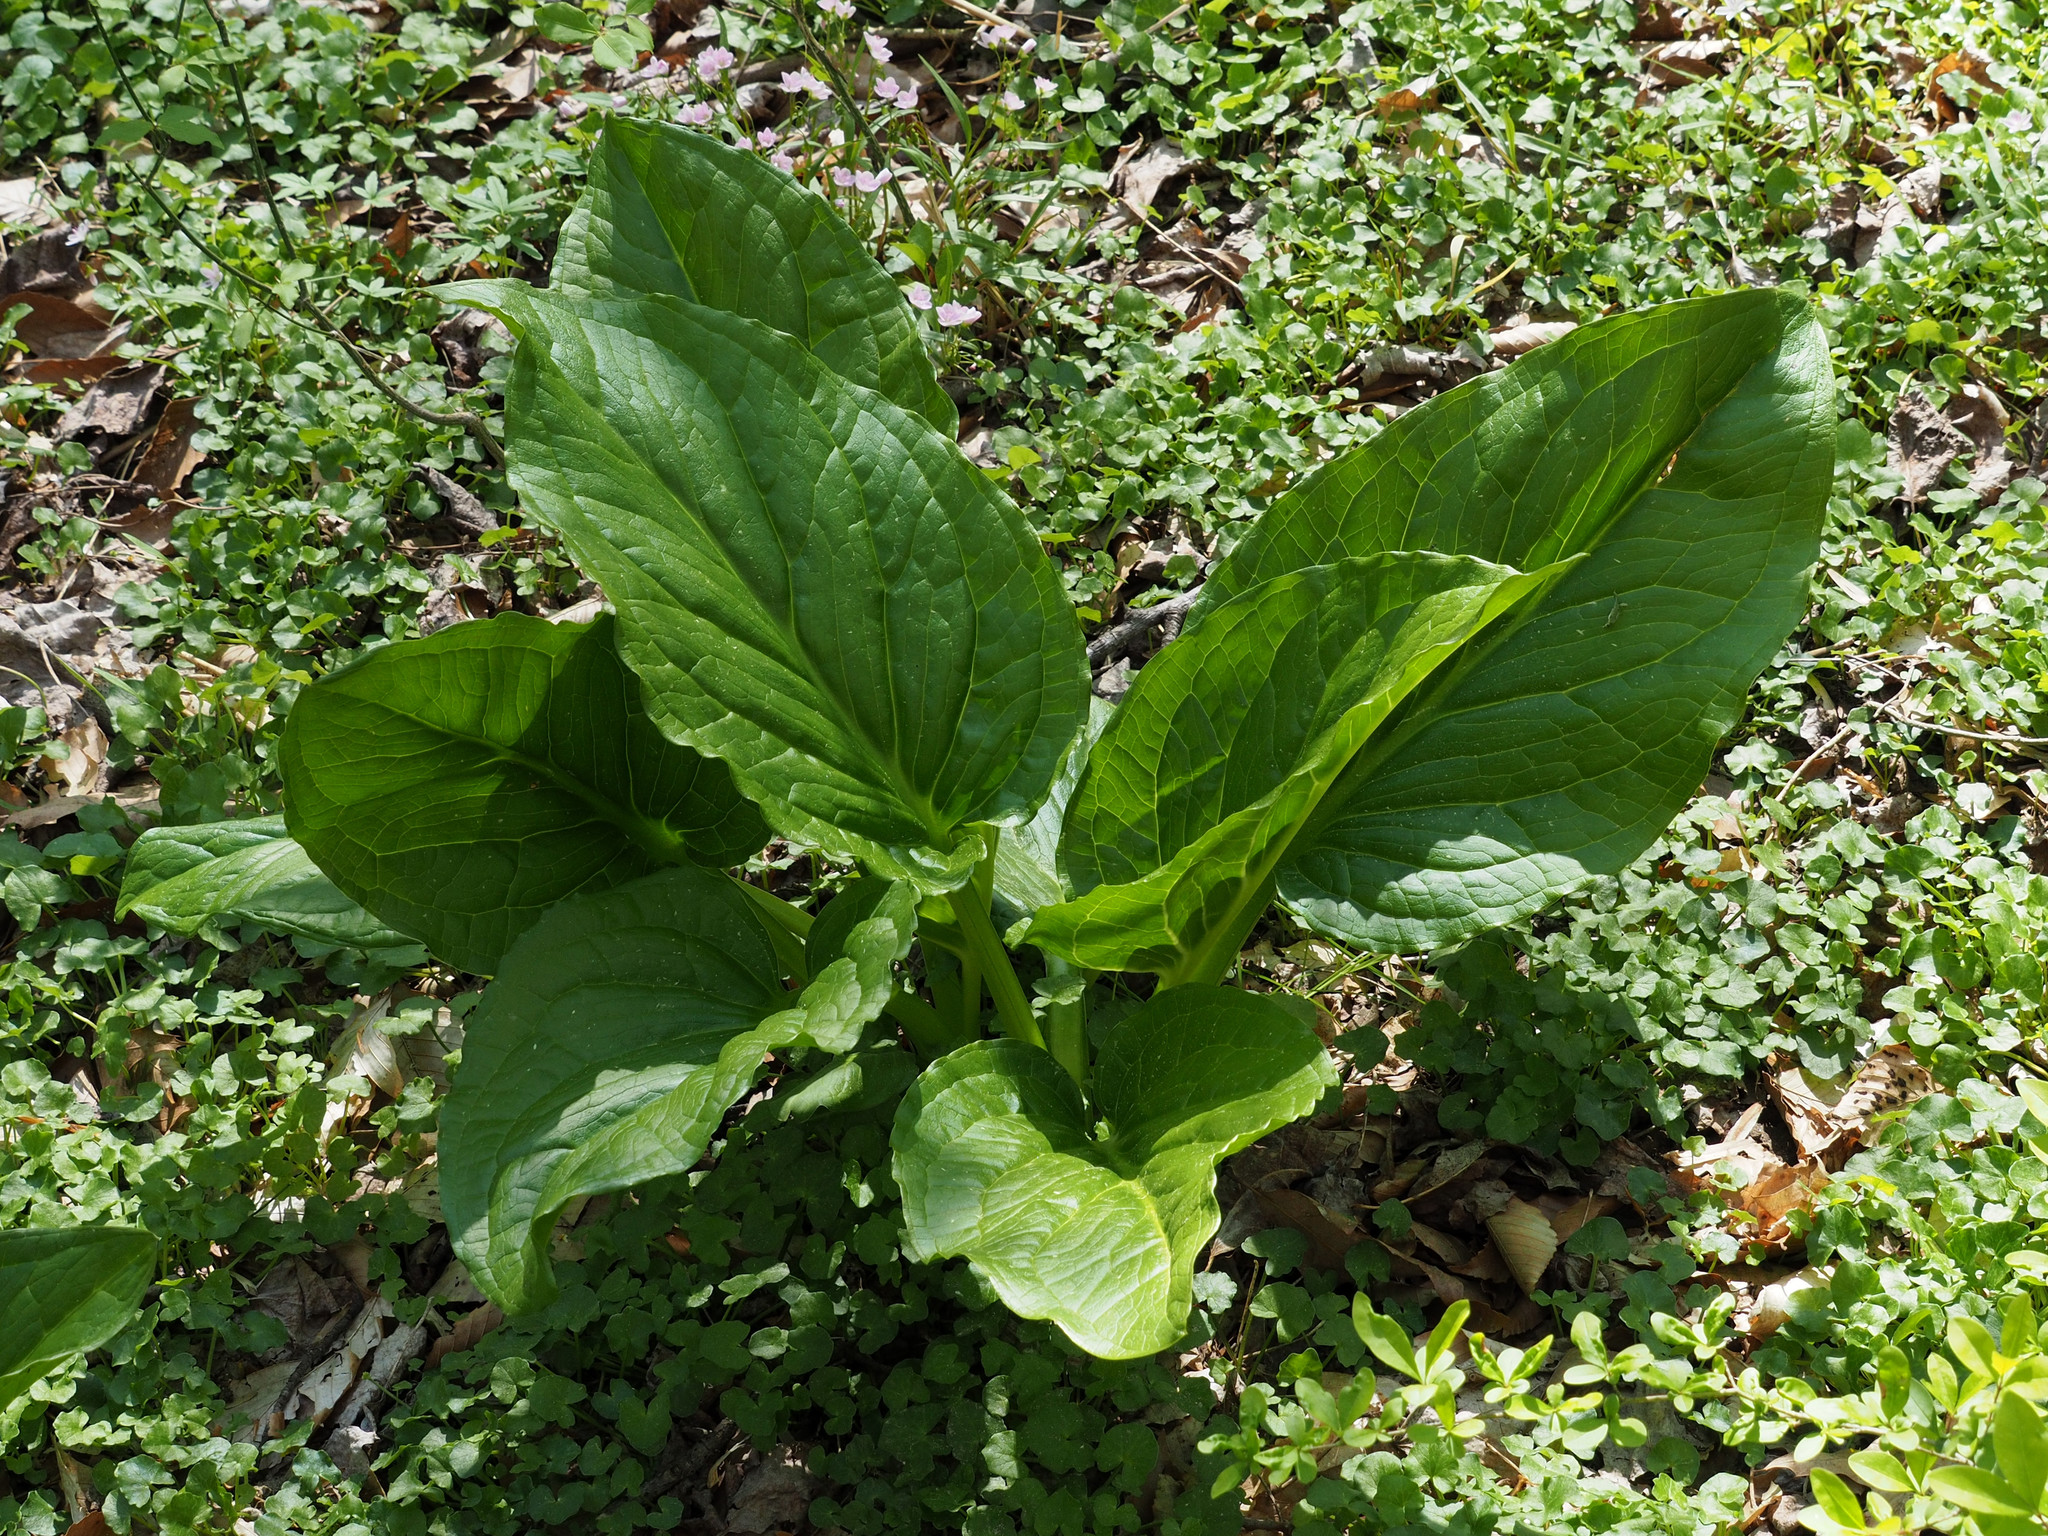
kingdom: Plantae
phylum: Tracheophyta
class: Liliopsida
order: Alismatales
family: Araceae
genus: Symplocarpus
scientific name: Symplocarpus foetidus
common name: Eastern skunk cabbage
